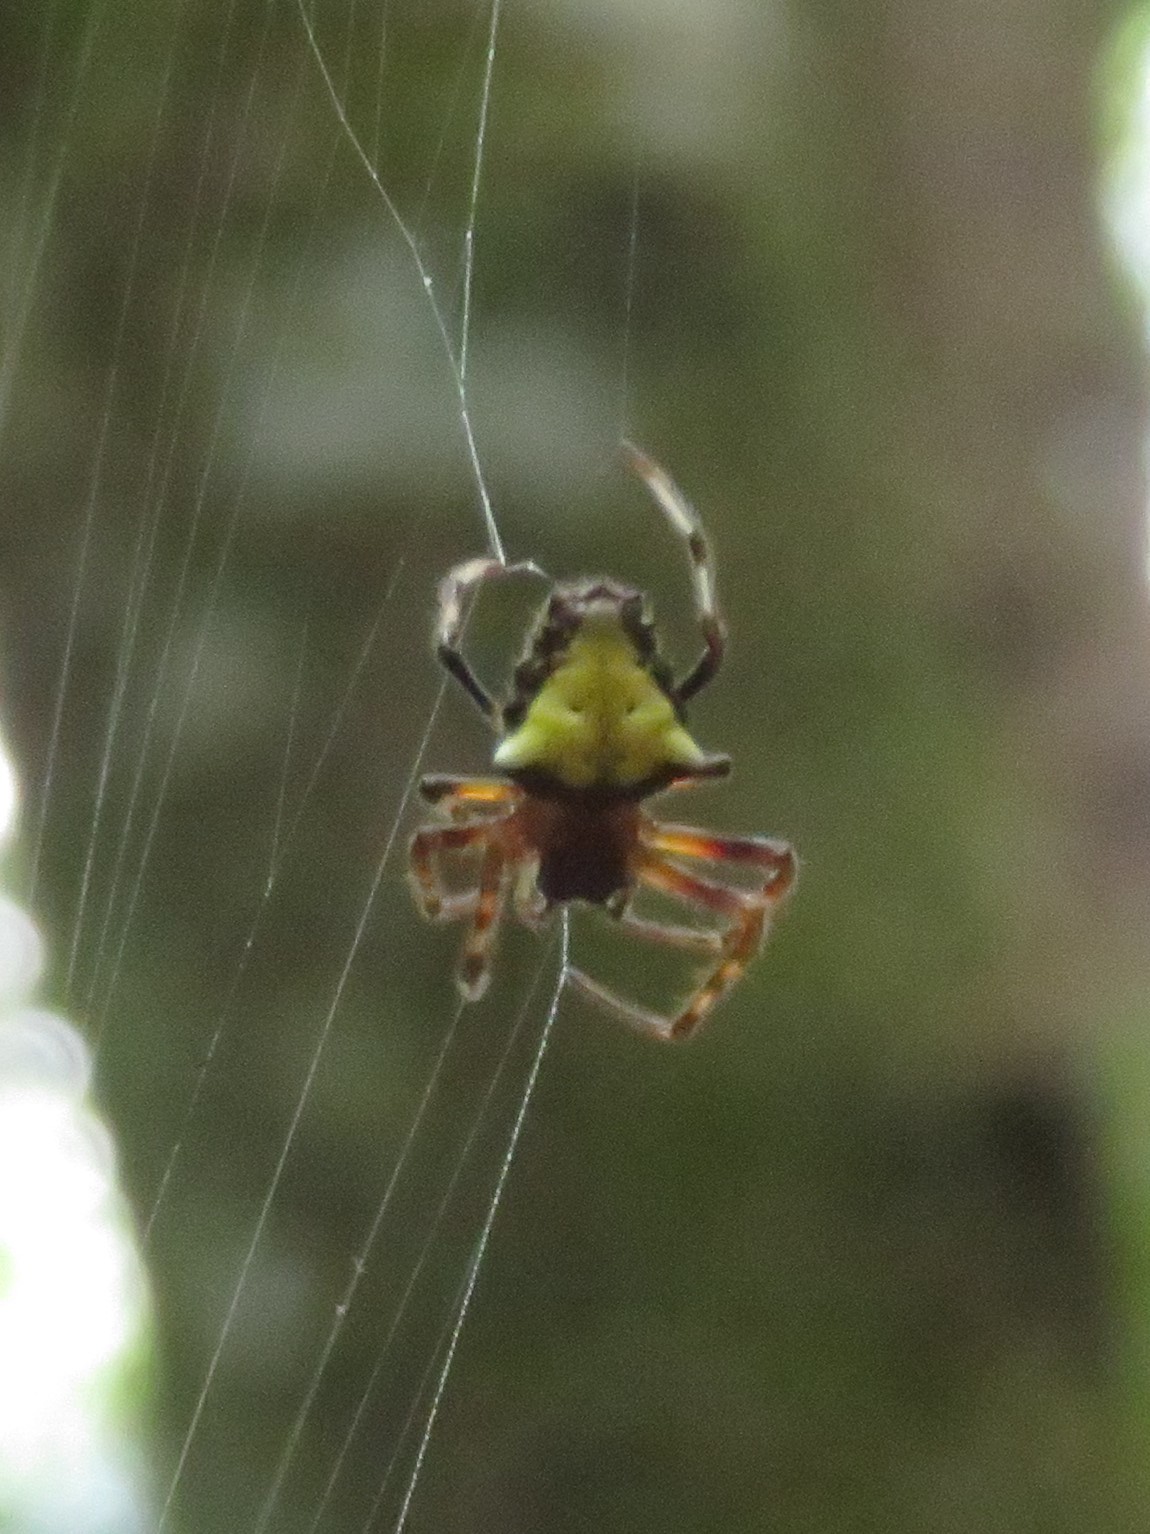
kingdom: Animalia
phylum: Arthropoda
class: Arachnida
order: Araneae
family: Araneidae
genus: Verrucosa
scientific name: Verrucosa arenata
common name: Orb weavers
